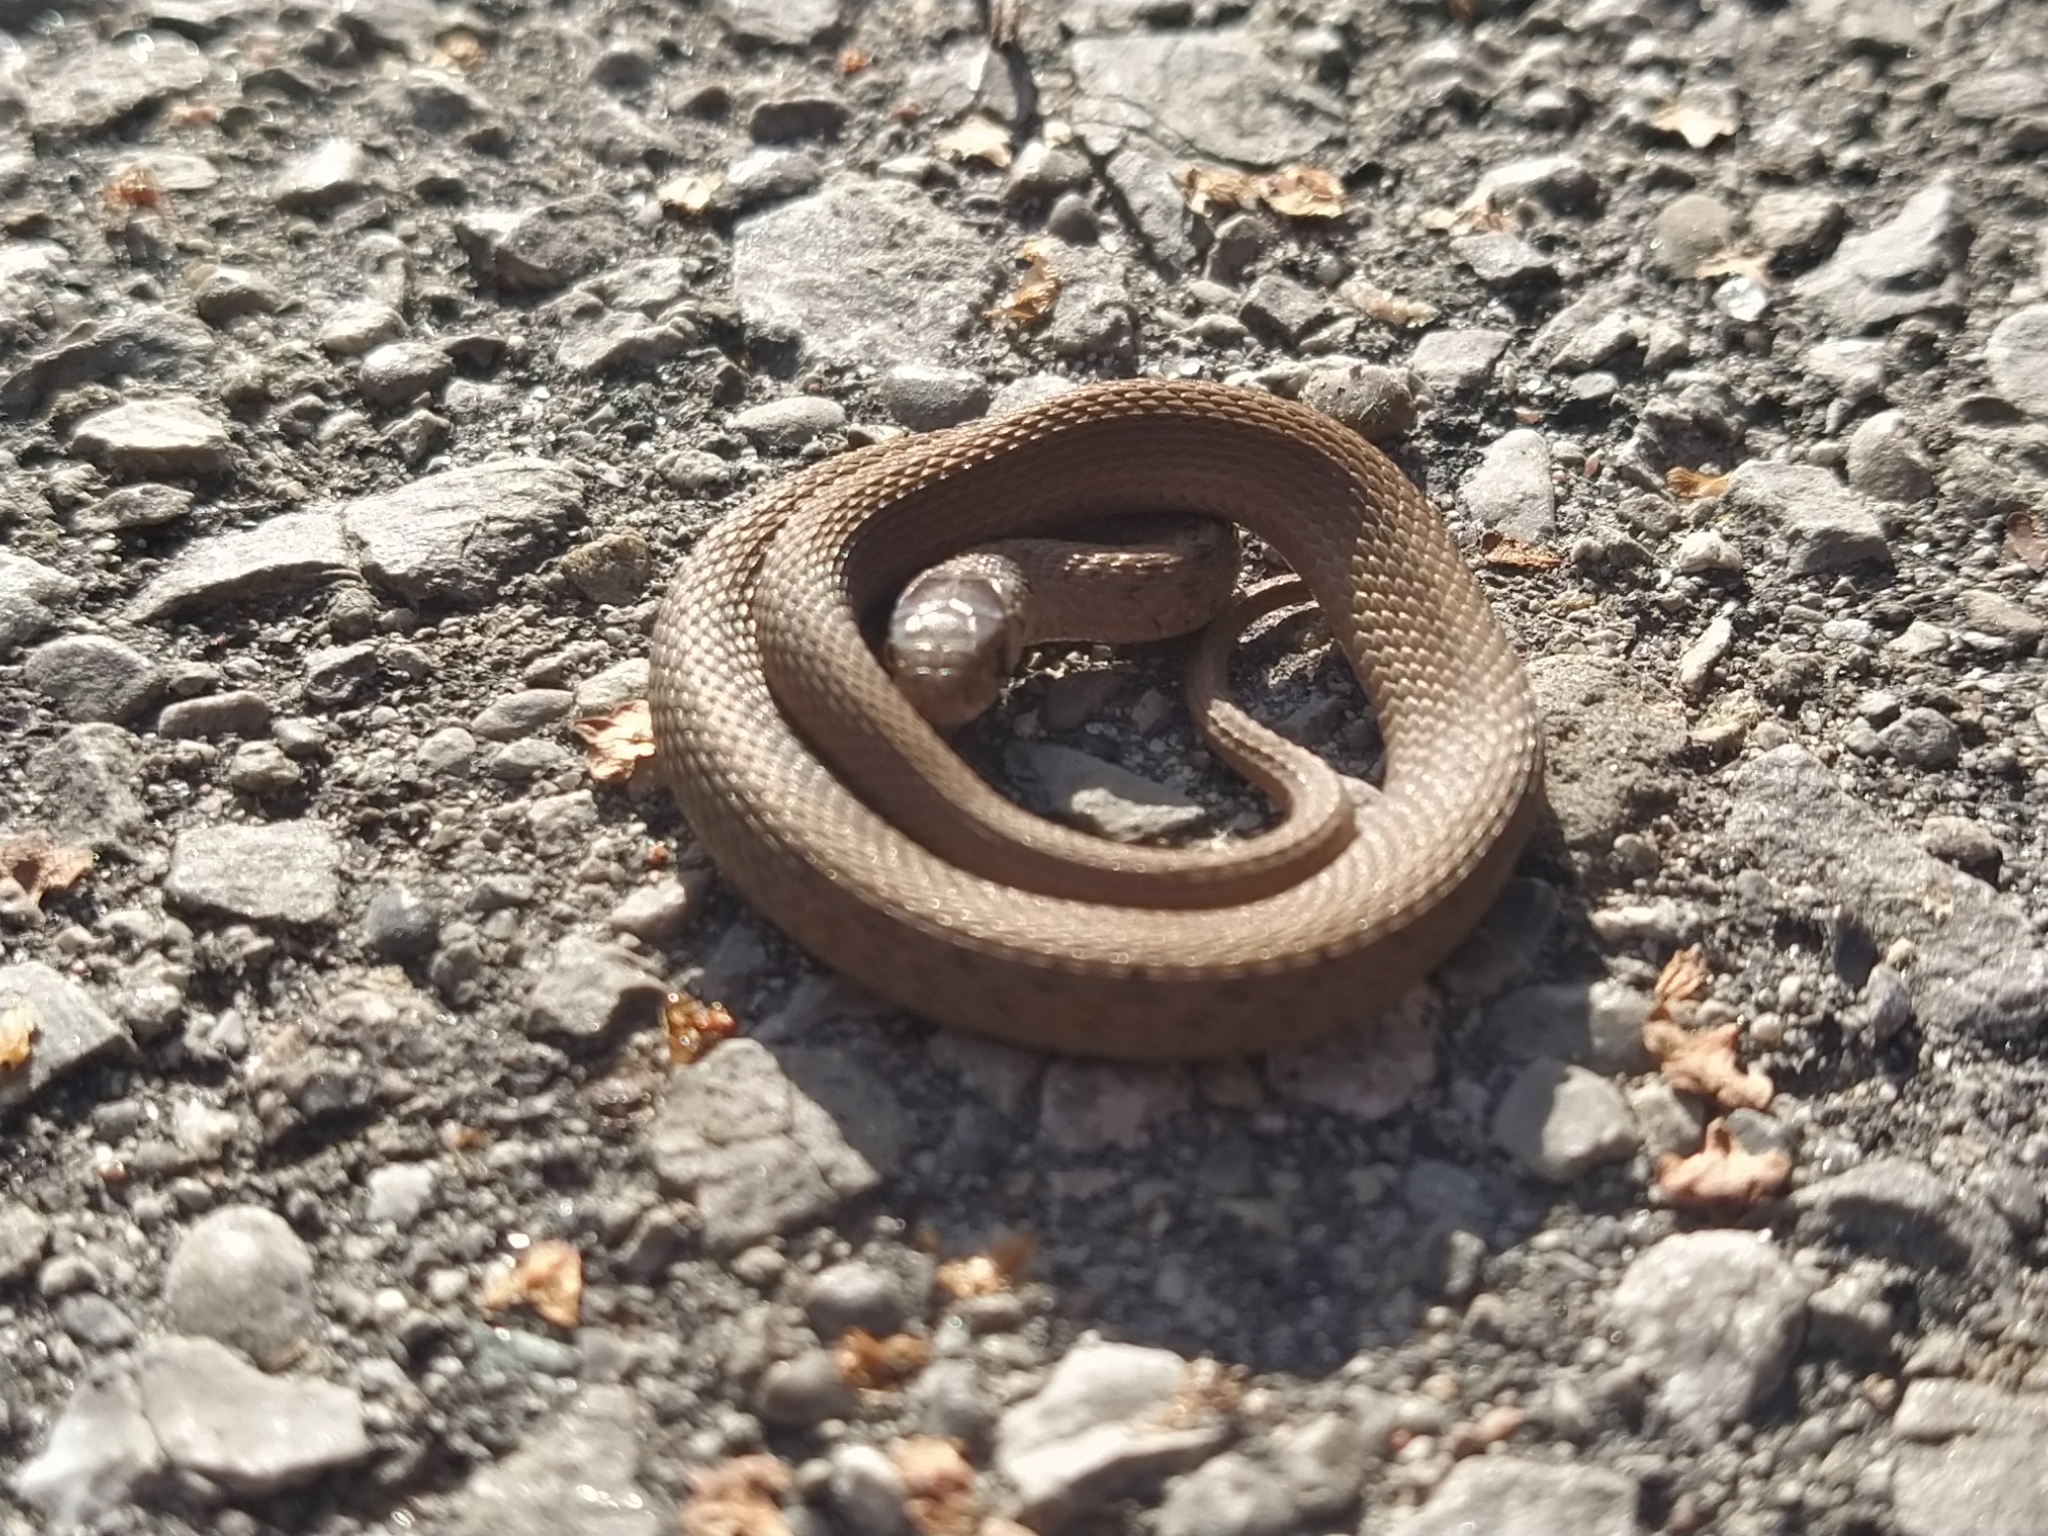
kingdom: Animalia
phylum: Chordata
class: Squamata
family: Colubridae
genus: Storeria
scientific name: Storeria dekayi
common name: (dekay’s) brown snake
